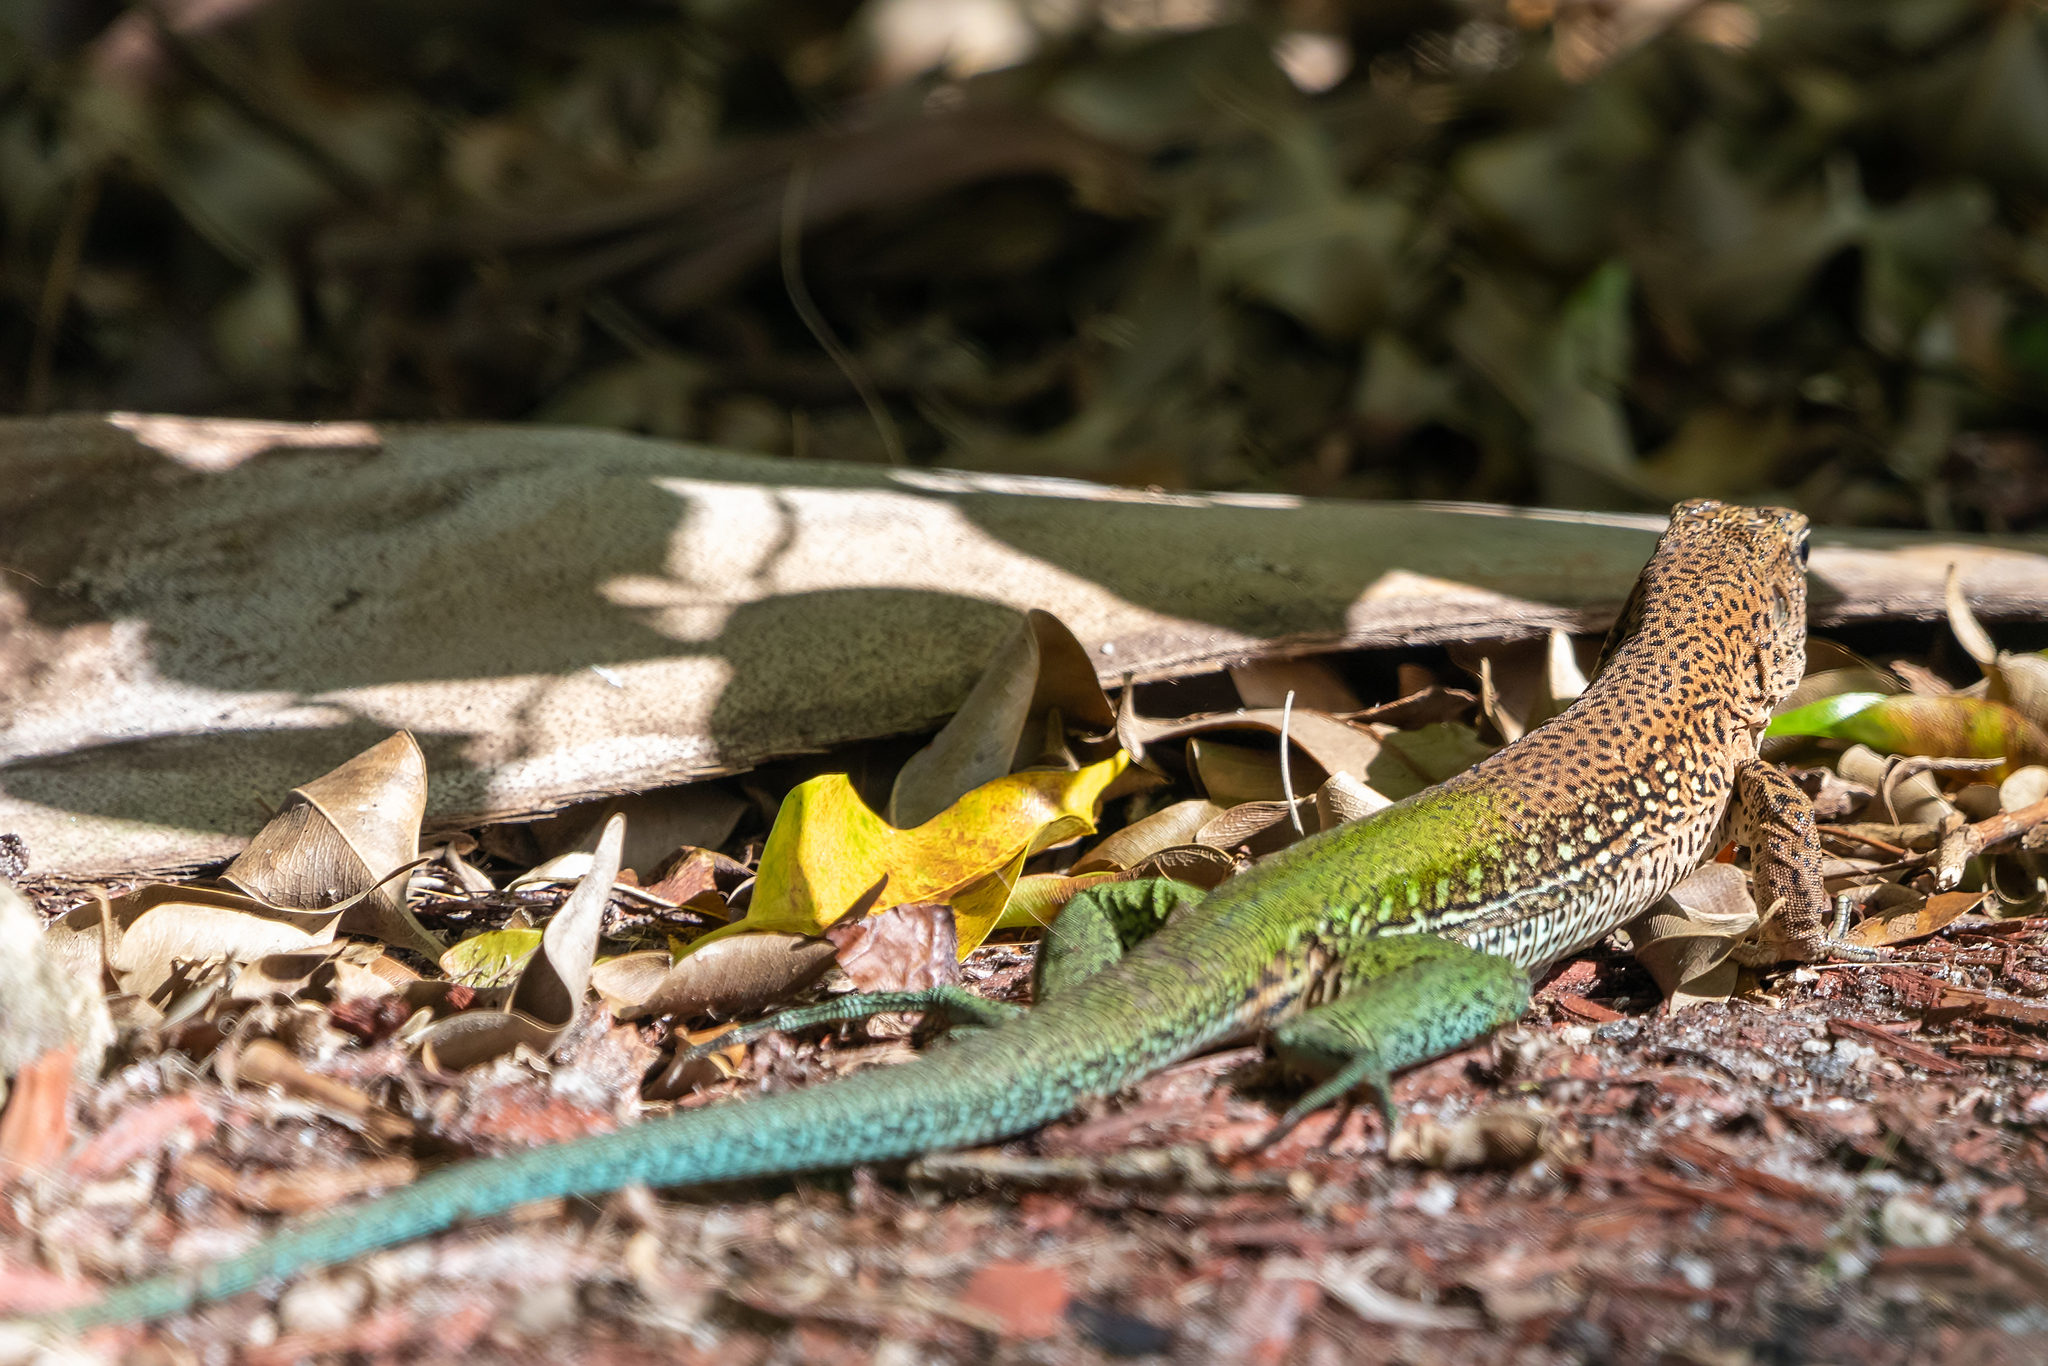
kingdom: Animalia
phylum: Chordata
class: Squamata
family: Teiidae
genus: Ameiva
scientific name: Ameiva ameiva
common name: Giant ameiva
